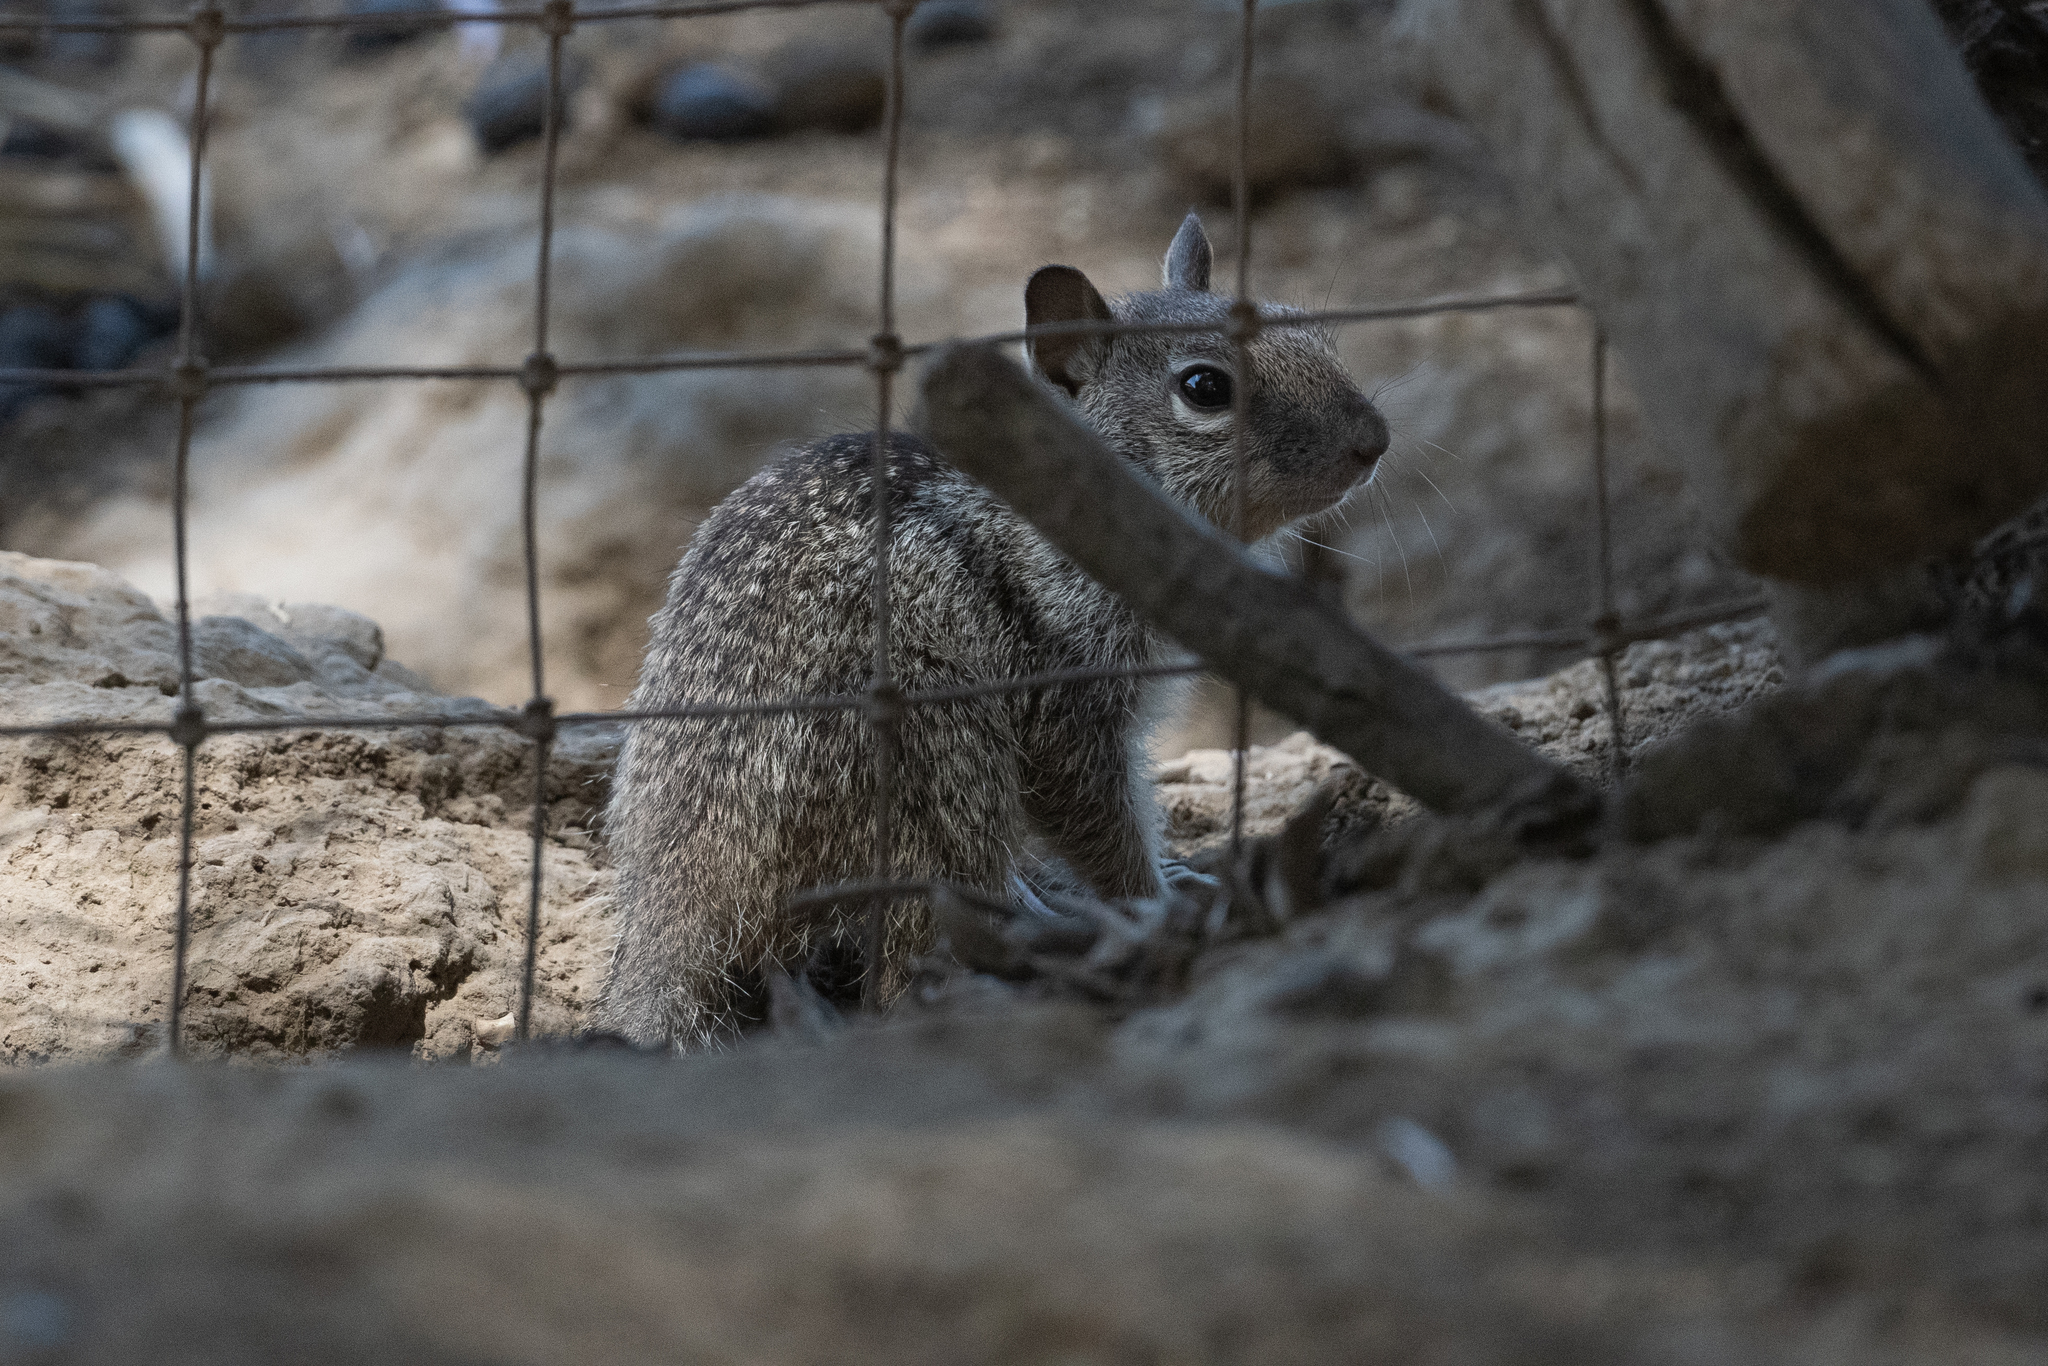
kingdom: Animalia
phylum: Chordata
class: Mammalia
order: Rodentia
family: Sciuridae
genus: Otospermophilus
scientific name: Otospermophilus beecheyi
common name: California ground squirrel
